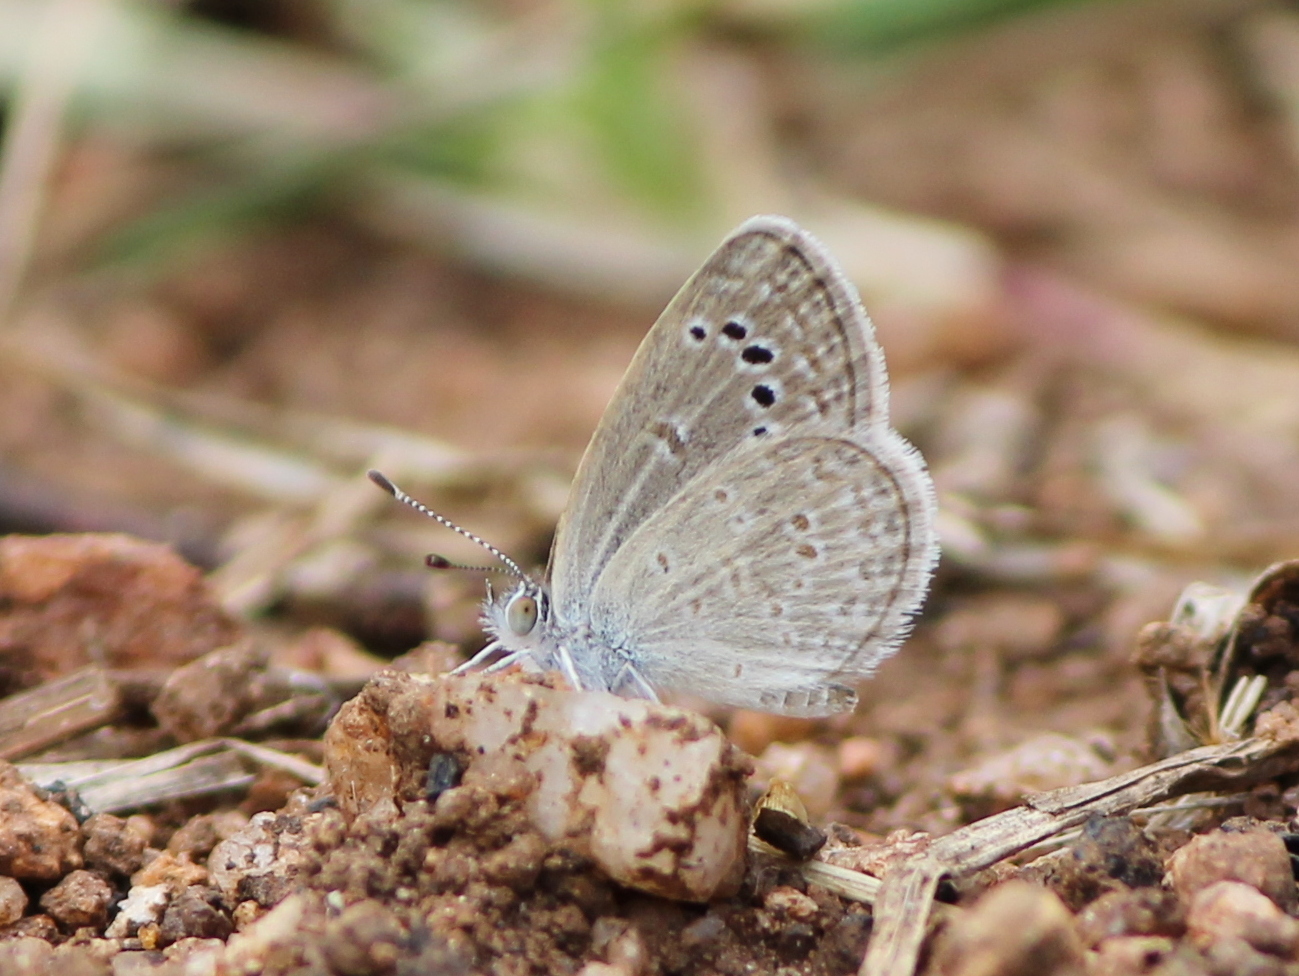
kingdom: Animalia
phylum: Arthropoda
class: Insecta
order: Lepidoptera
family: Lycaenidae
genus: Zizina
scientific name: Zizina otis
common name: Lesser grass blue
